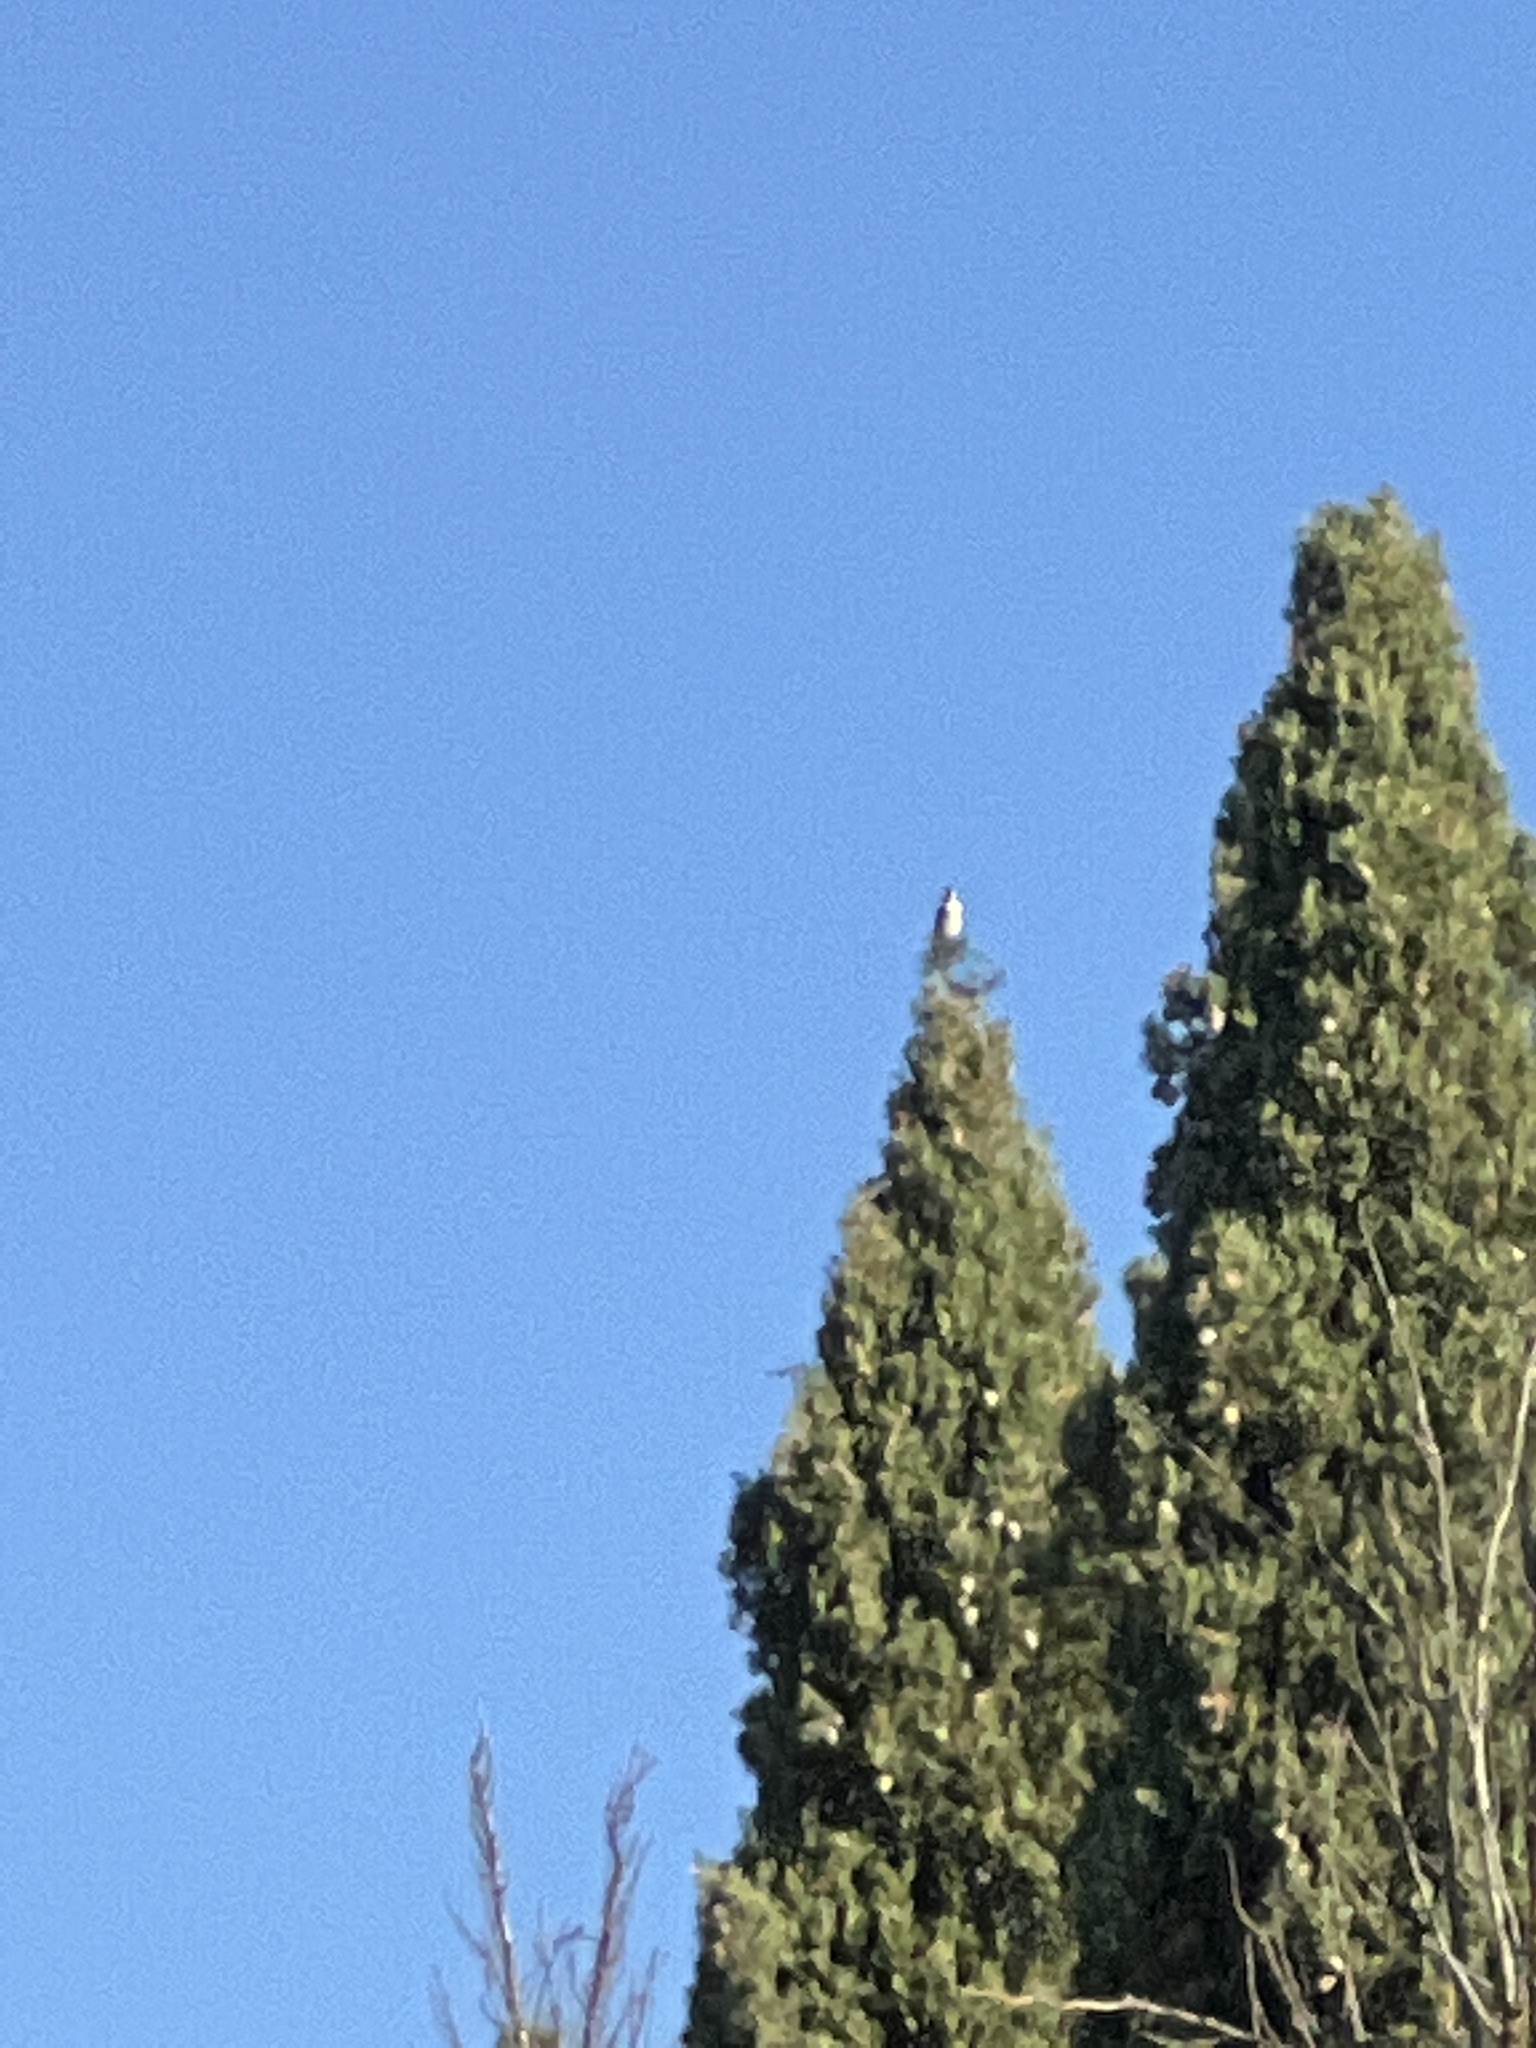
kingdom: Animalia
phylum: Chordata
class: Aves
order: Passeriformes
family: Fringillidae
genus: Carduelis
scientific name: Carduelis carduelis
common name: European goldfinch
